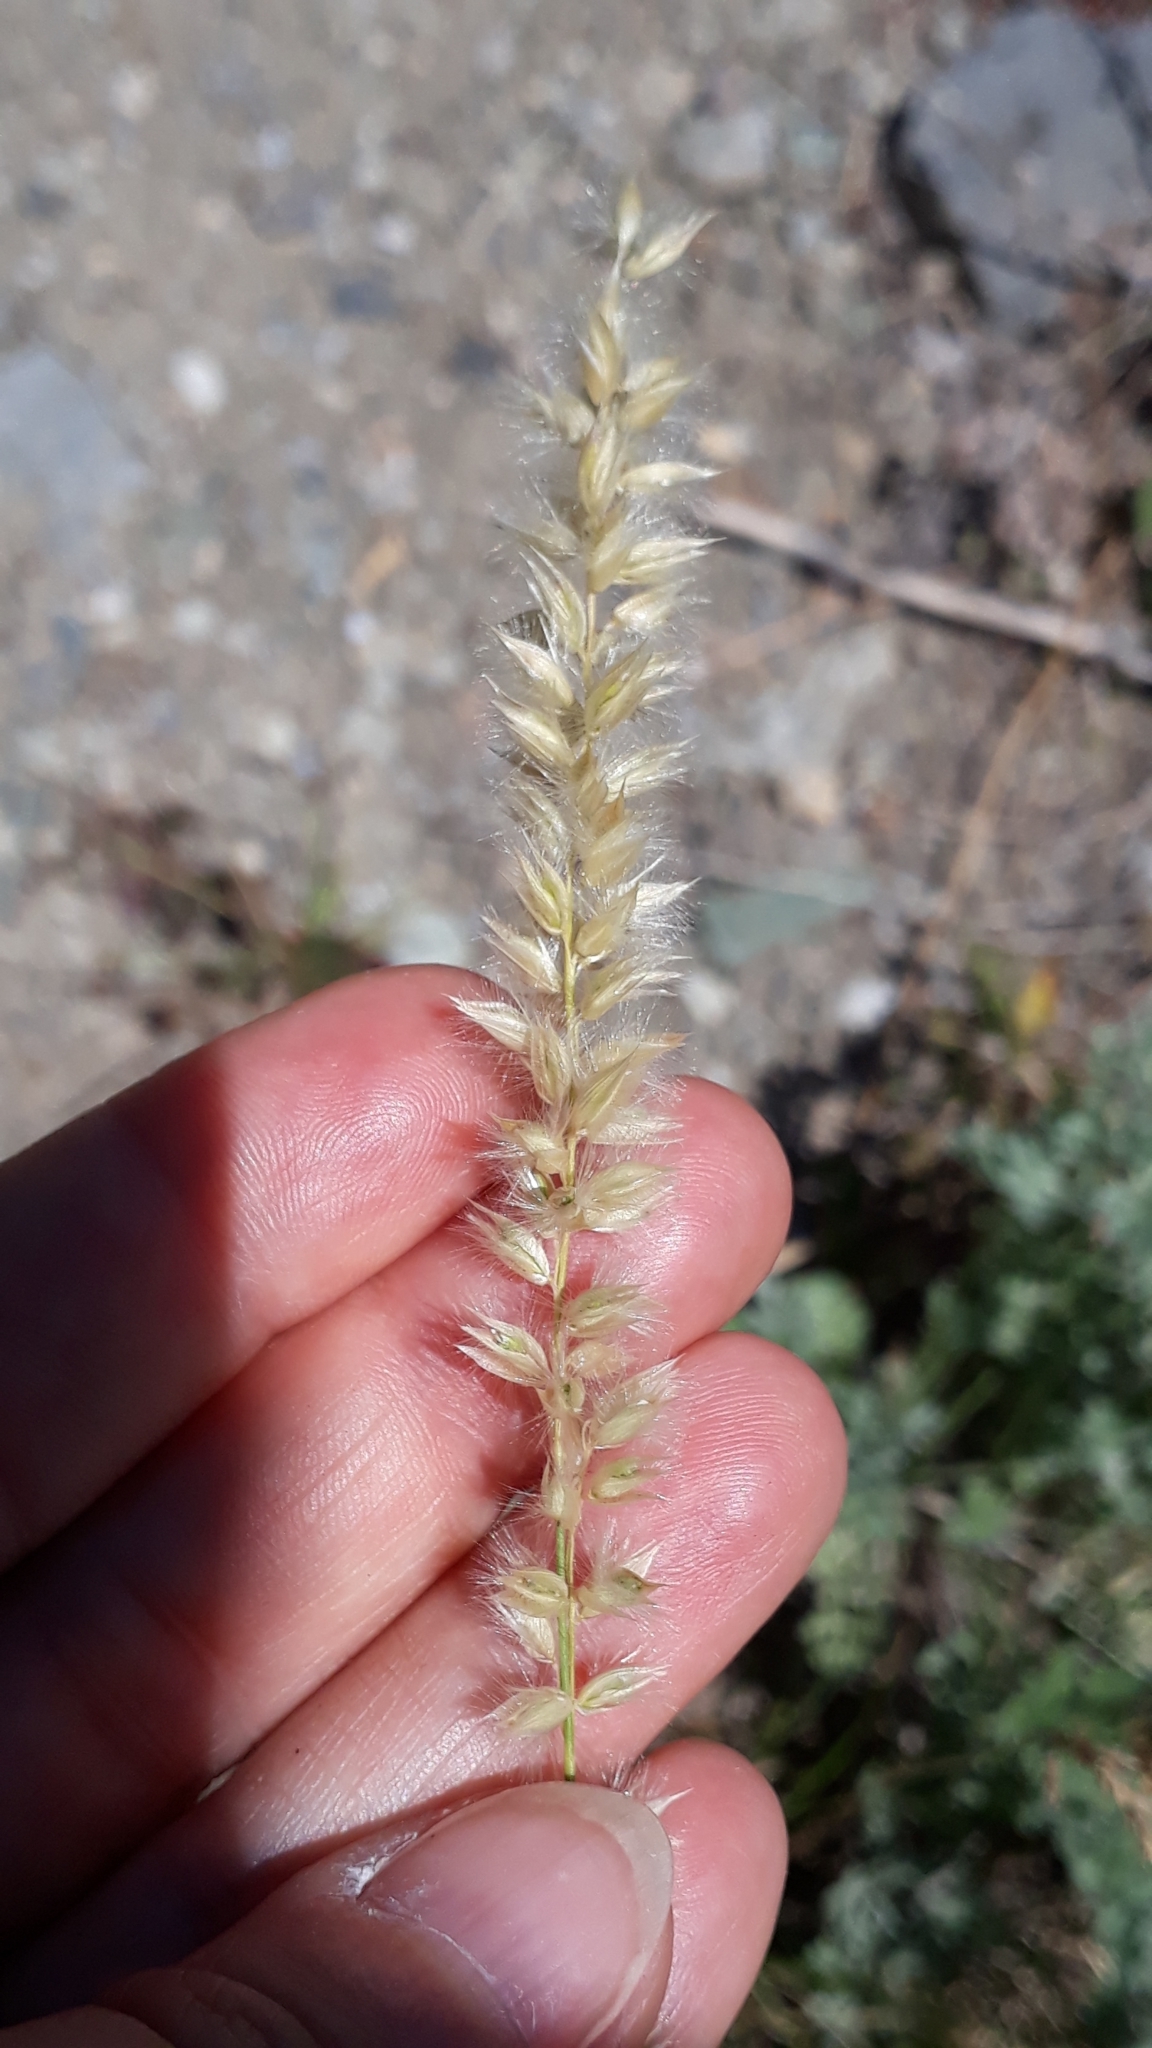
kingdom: Plantae
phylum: Tracheophyta
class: Liliopsida
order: Poales
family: Poaceae
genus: Melica
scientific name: Melica ciliata
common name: Hairy melicgrass
